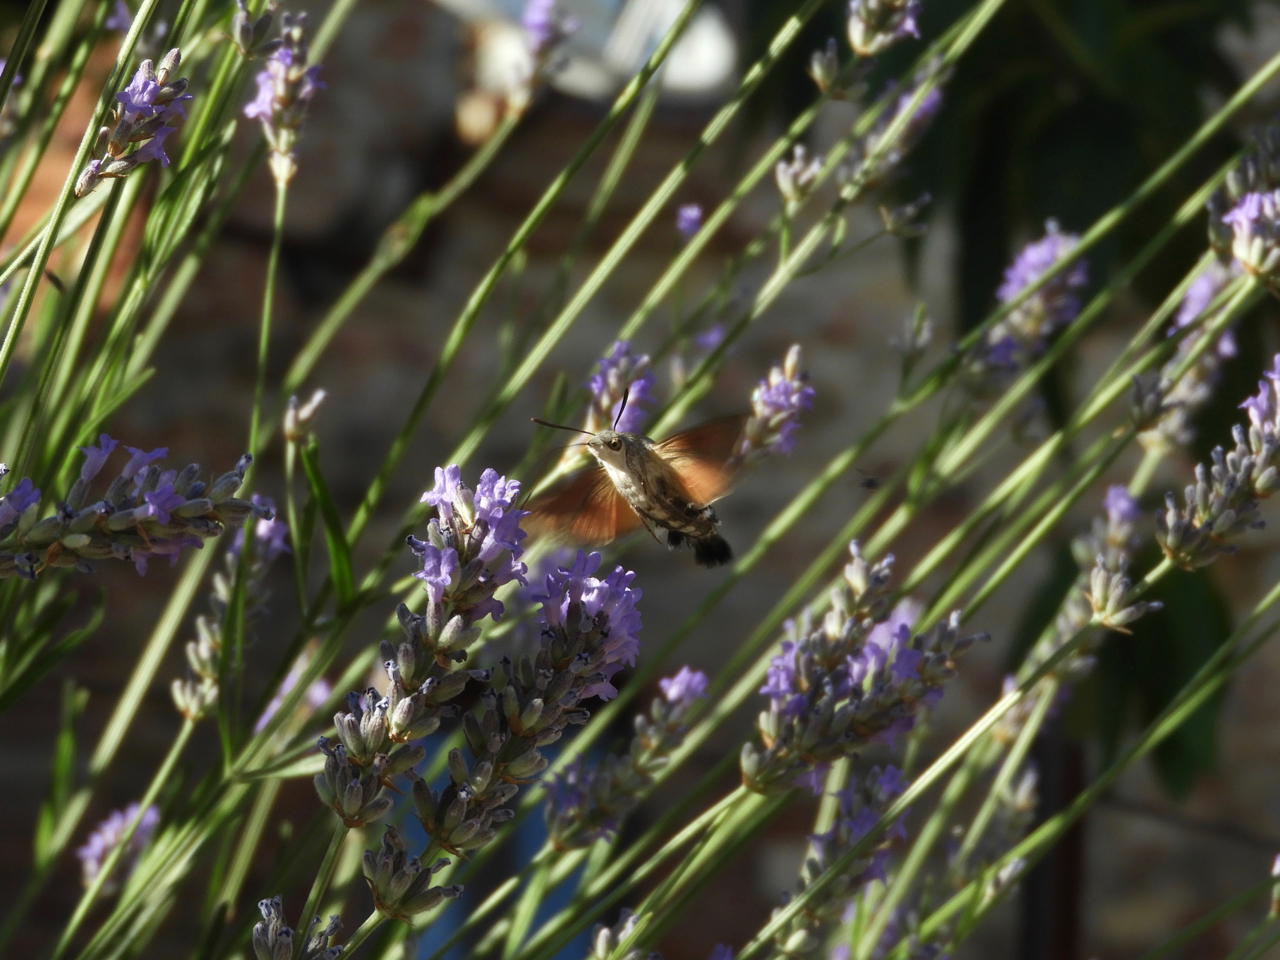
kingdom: Animalia
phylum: Arthropoda
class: Insecta
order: Lepidoptera
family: Sphingidae
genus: Macroglossum
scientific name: Macroglossum stellatarum
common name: Humming-bird hawk-moth
